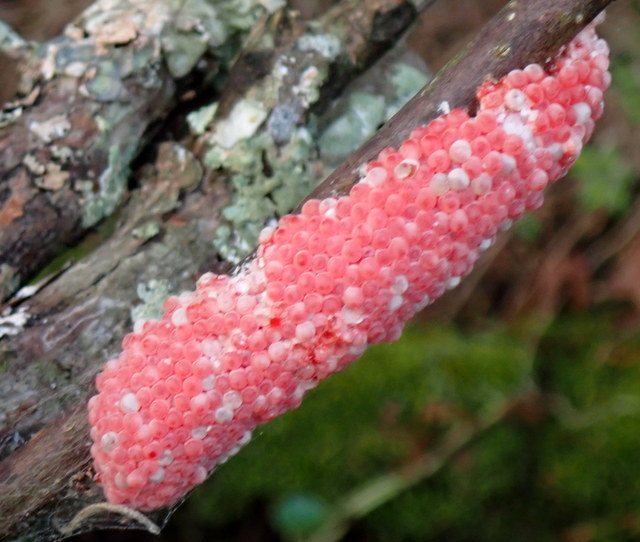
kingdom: Animalia
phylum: Mollusca
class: Gastropoda
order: Architaenioglossa
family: Ampullariidae
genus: Pomacea
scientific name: Pomacea maculata
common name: Giant applesnail
